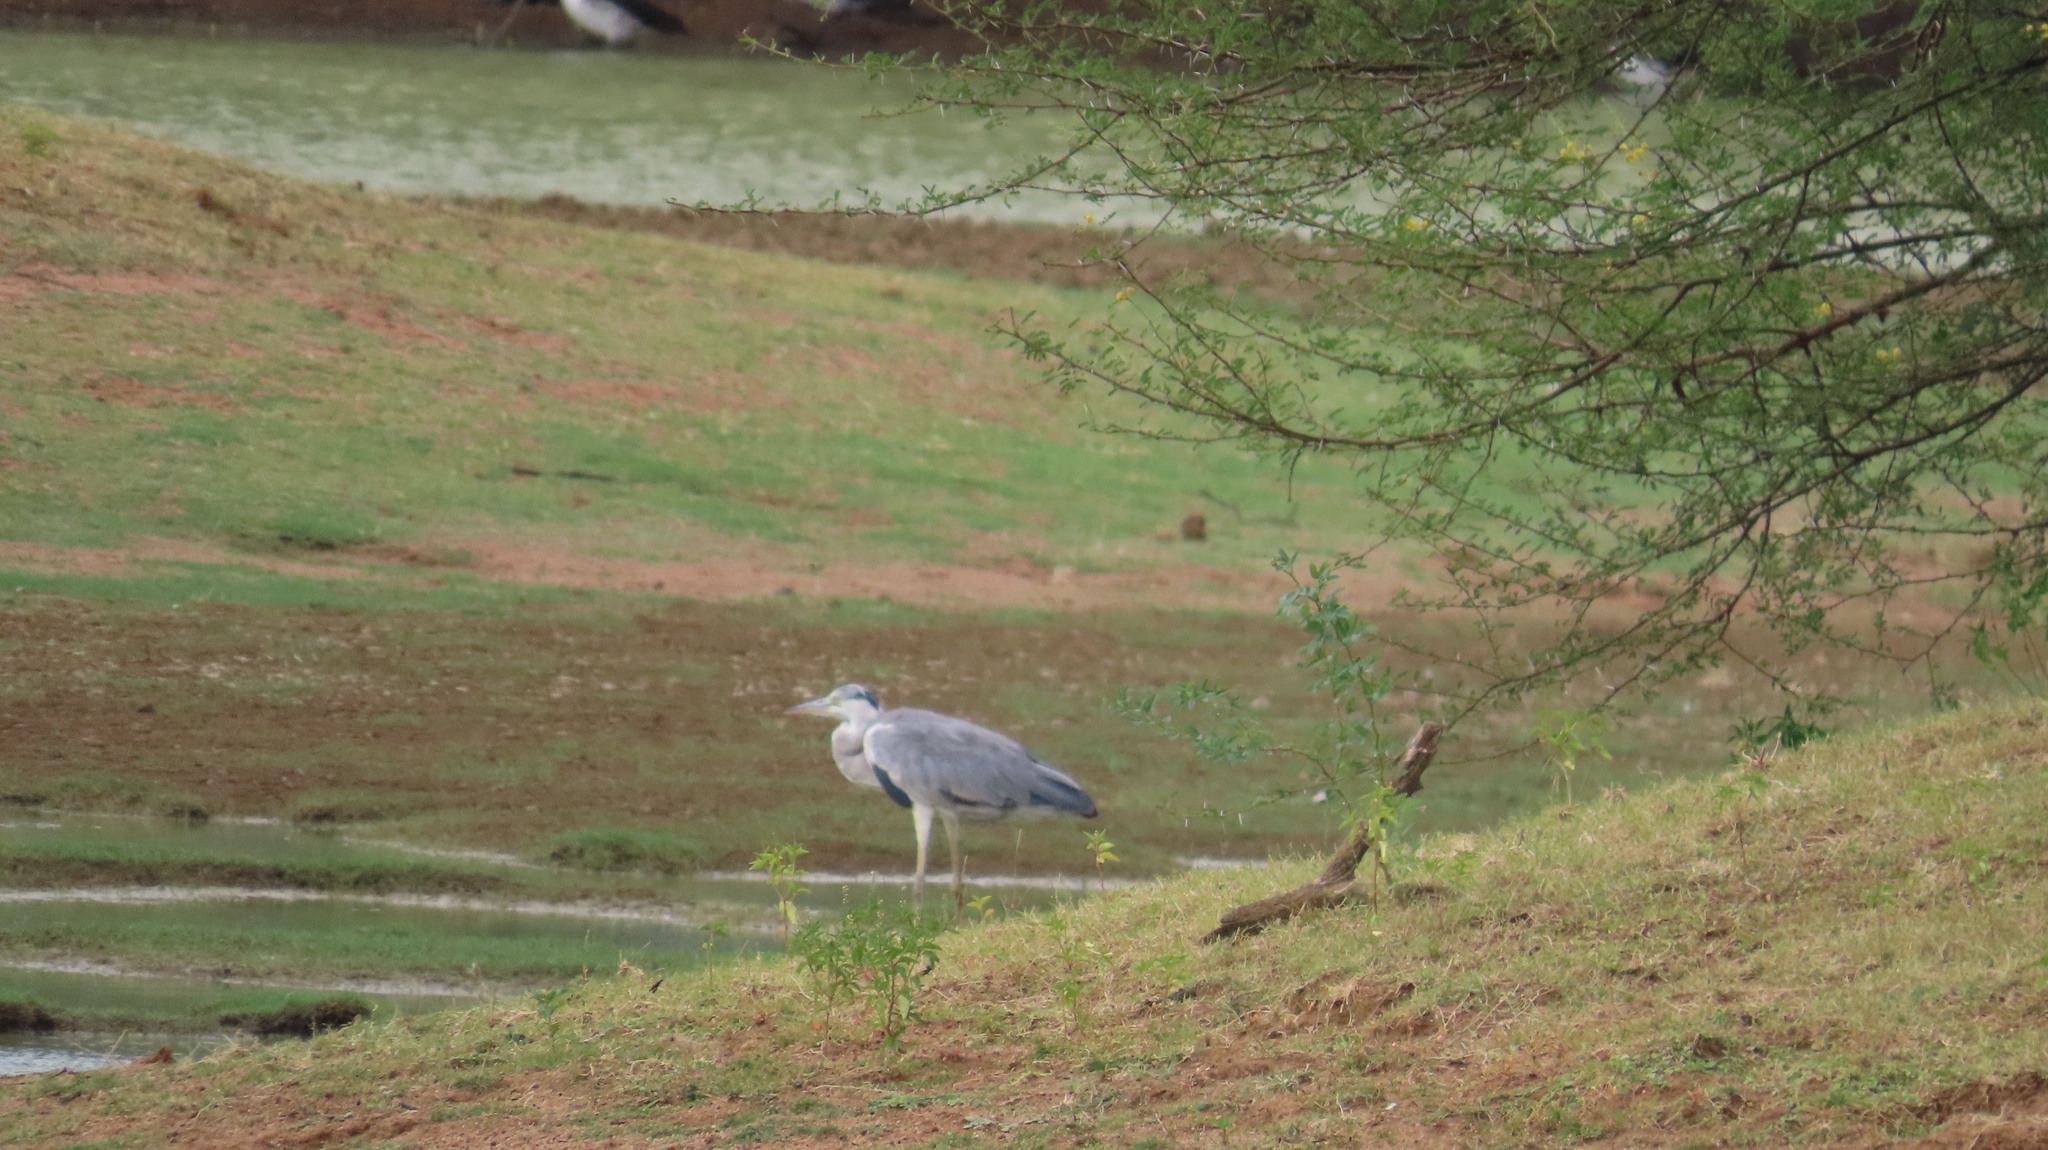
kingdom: Animalia
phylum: Chordata
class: Aves
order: Pelecaniformes
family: Ardeidae
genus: Ardea
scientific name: Ardea cinerea
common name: Grey heron
